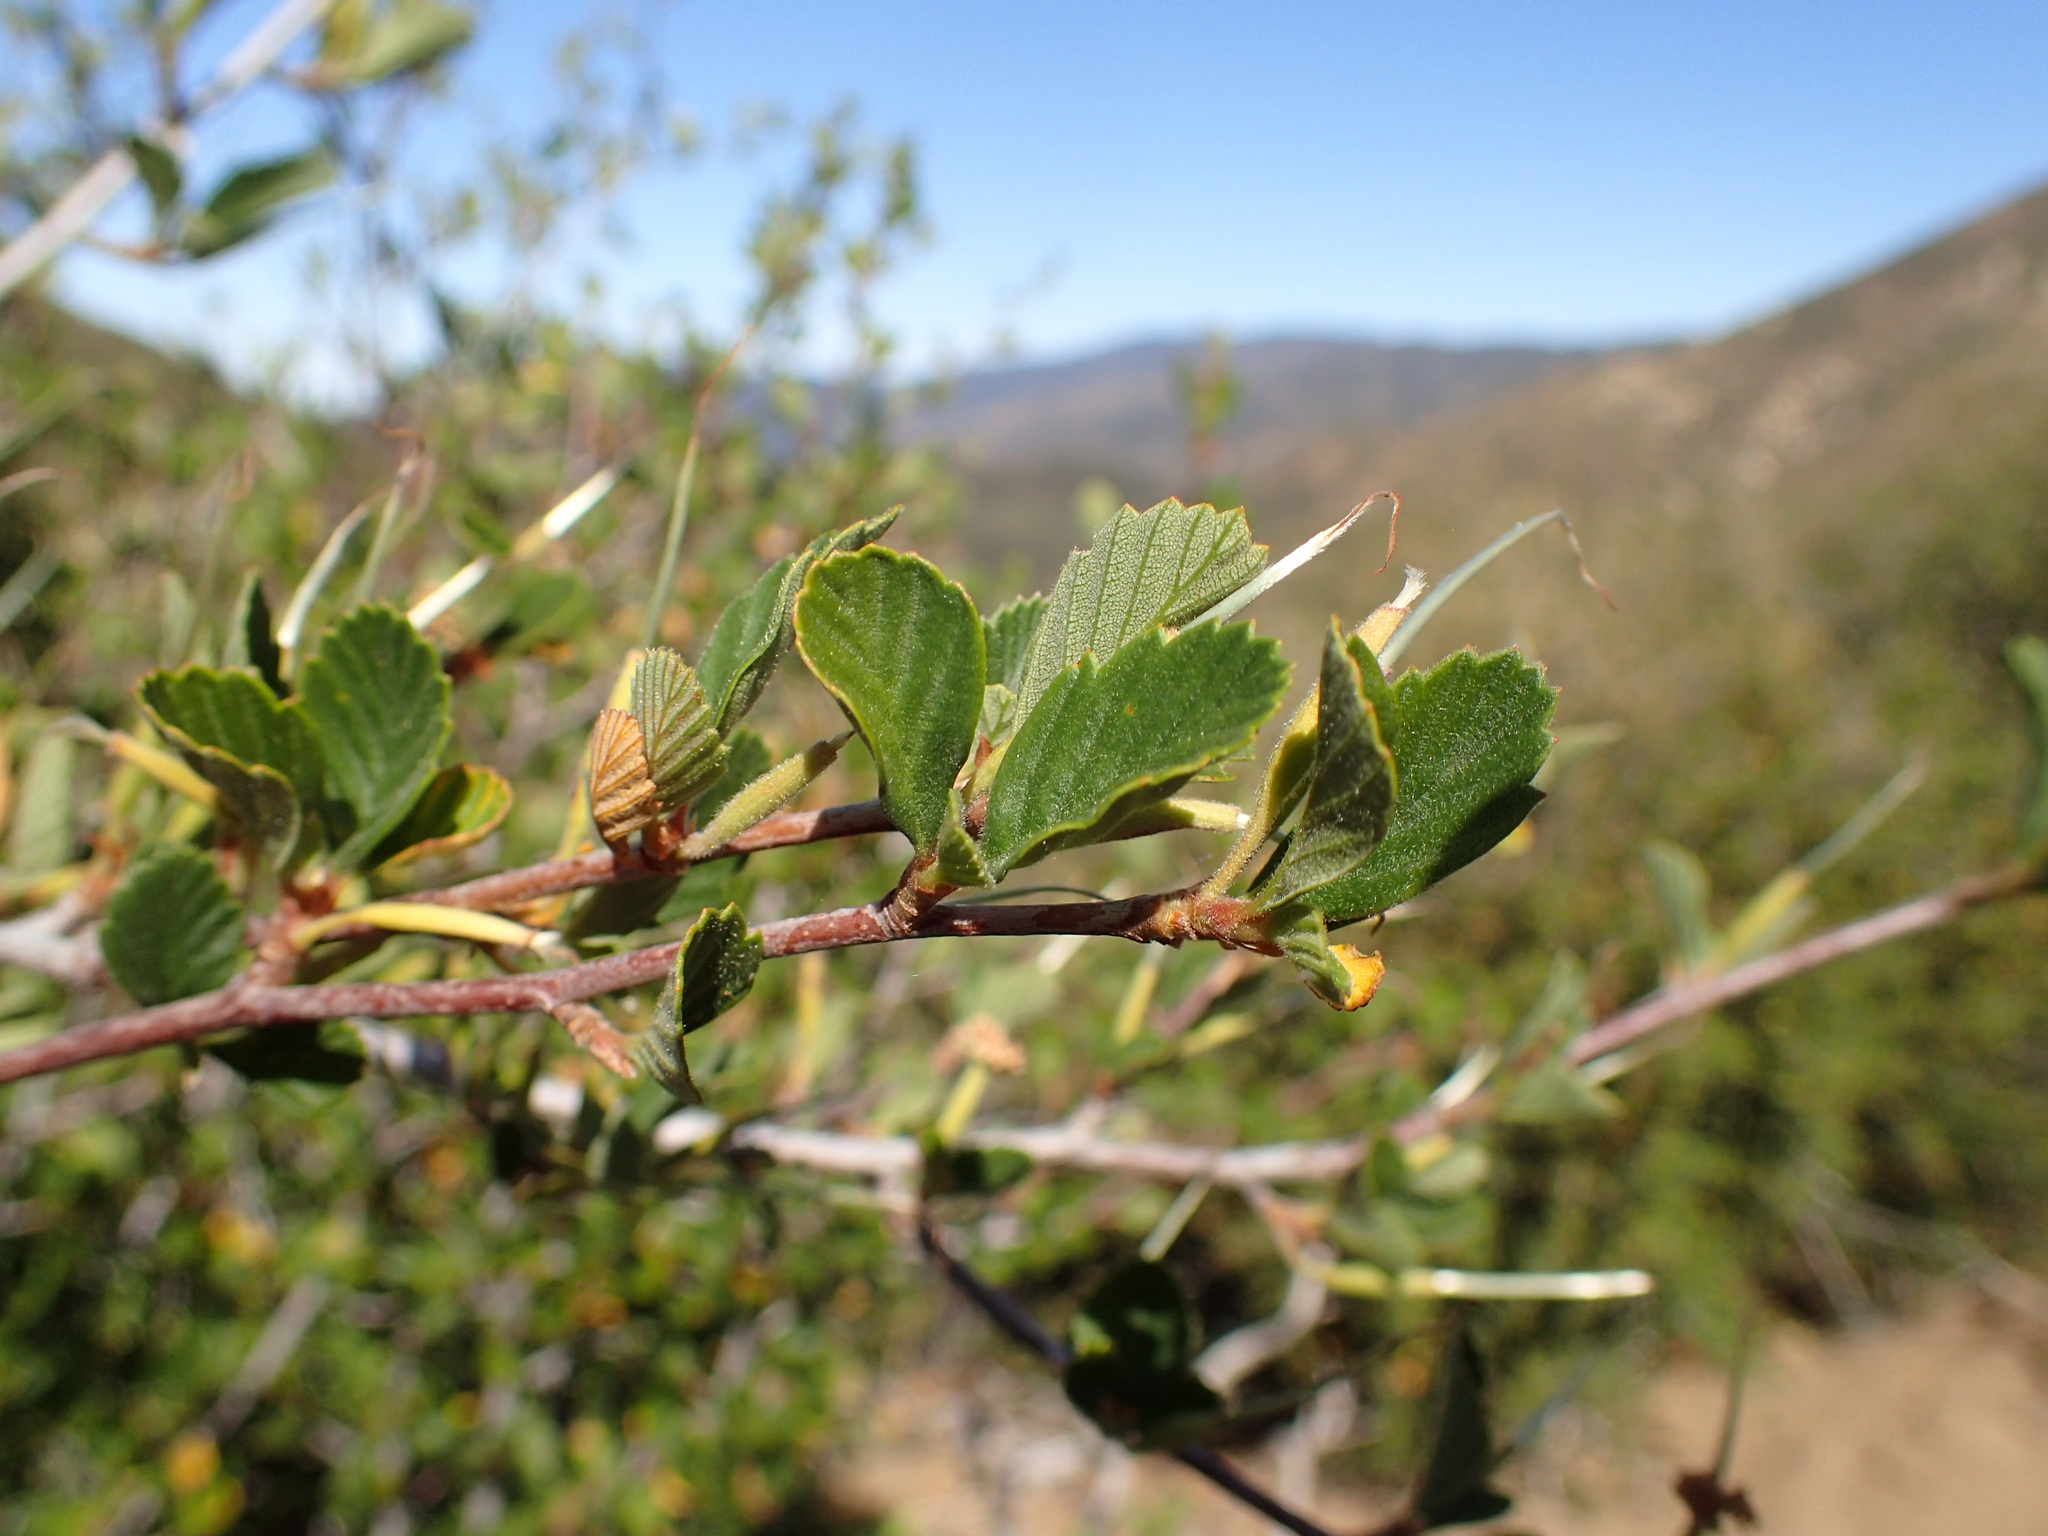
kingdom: Plantae
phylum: Tracheophyta
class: Magnoliopsida
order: Rosales
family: Rosaceae
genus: Cercocarpus
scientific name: Cercocarpus betuloides
